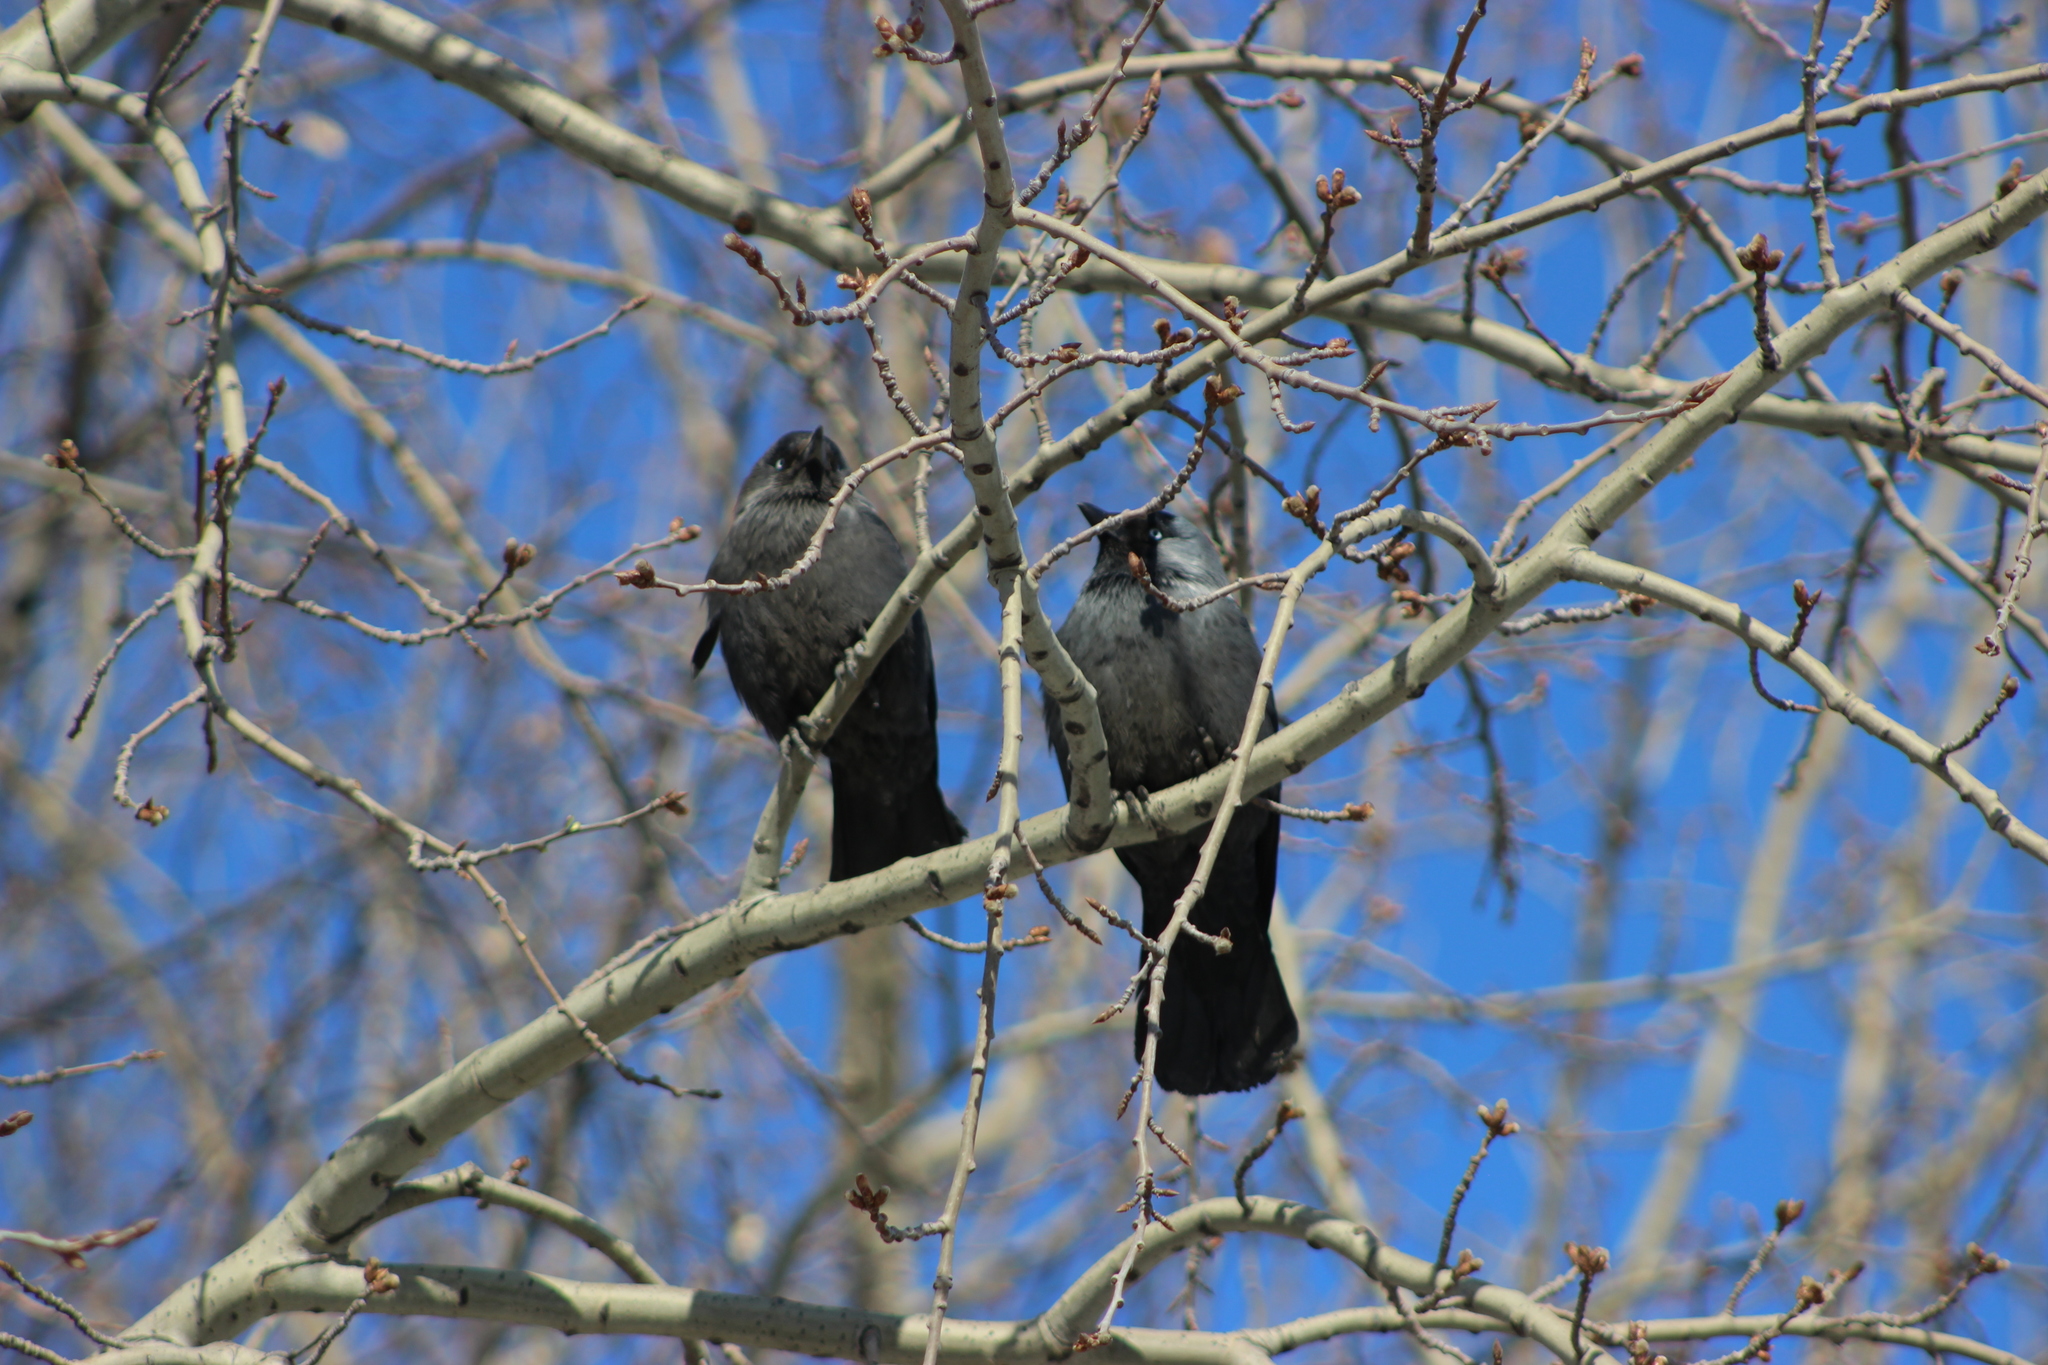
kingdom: Animalia
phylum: Chordata
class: Aves
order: Passeriformes
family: Corvidae
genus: Coloeus
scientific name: Coloeus monedula
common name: Western jackdaw
